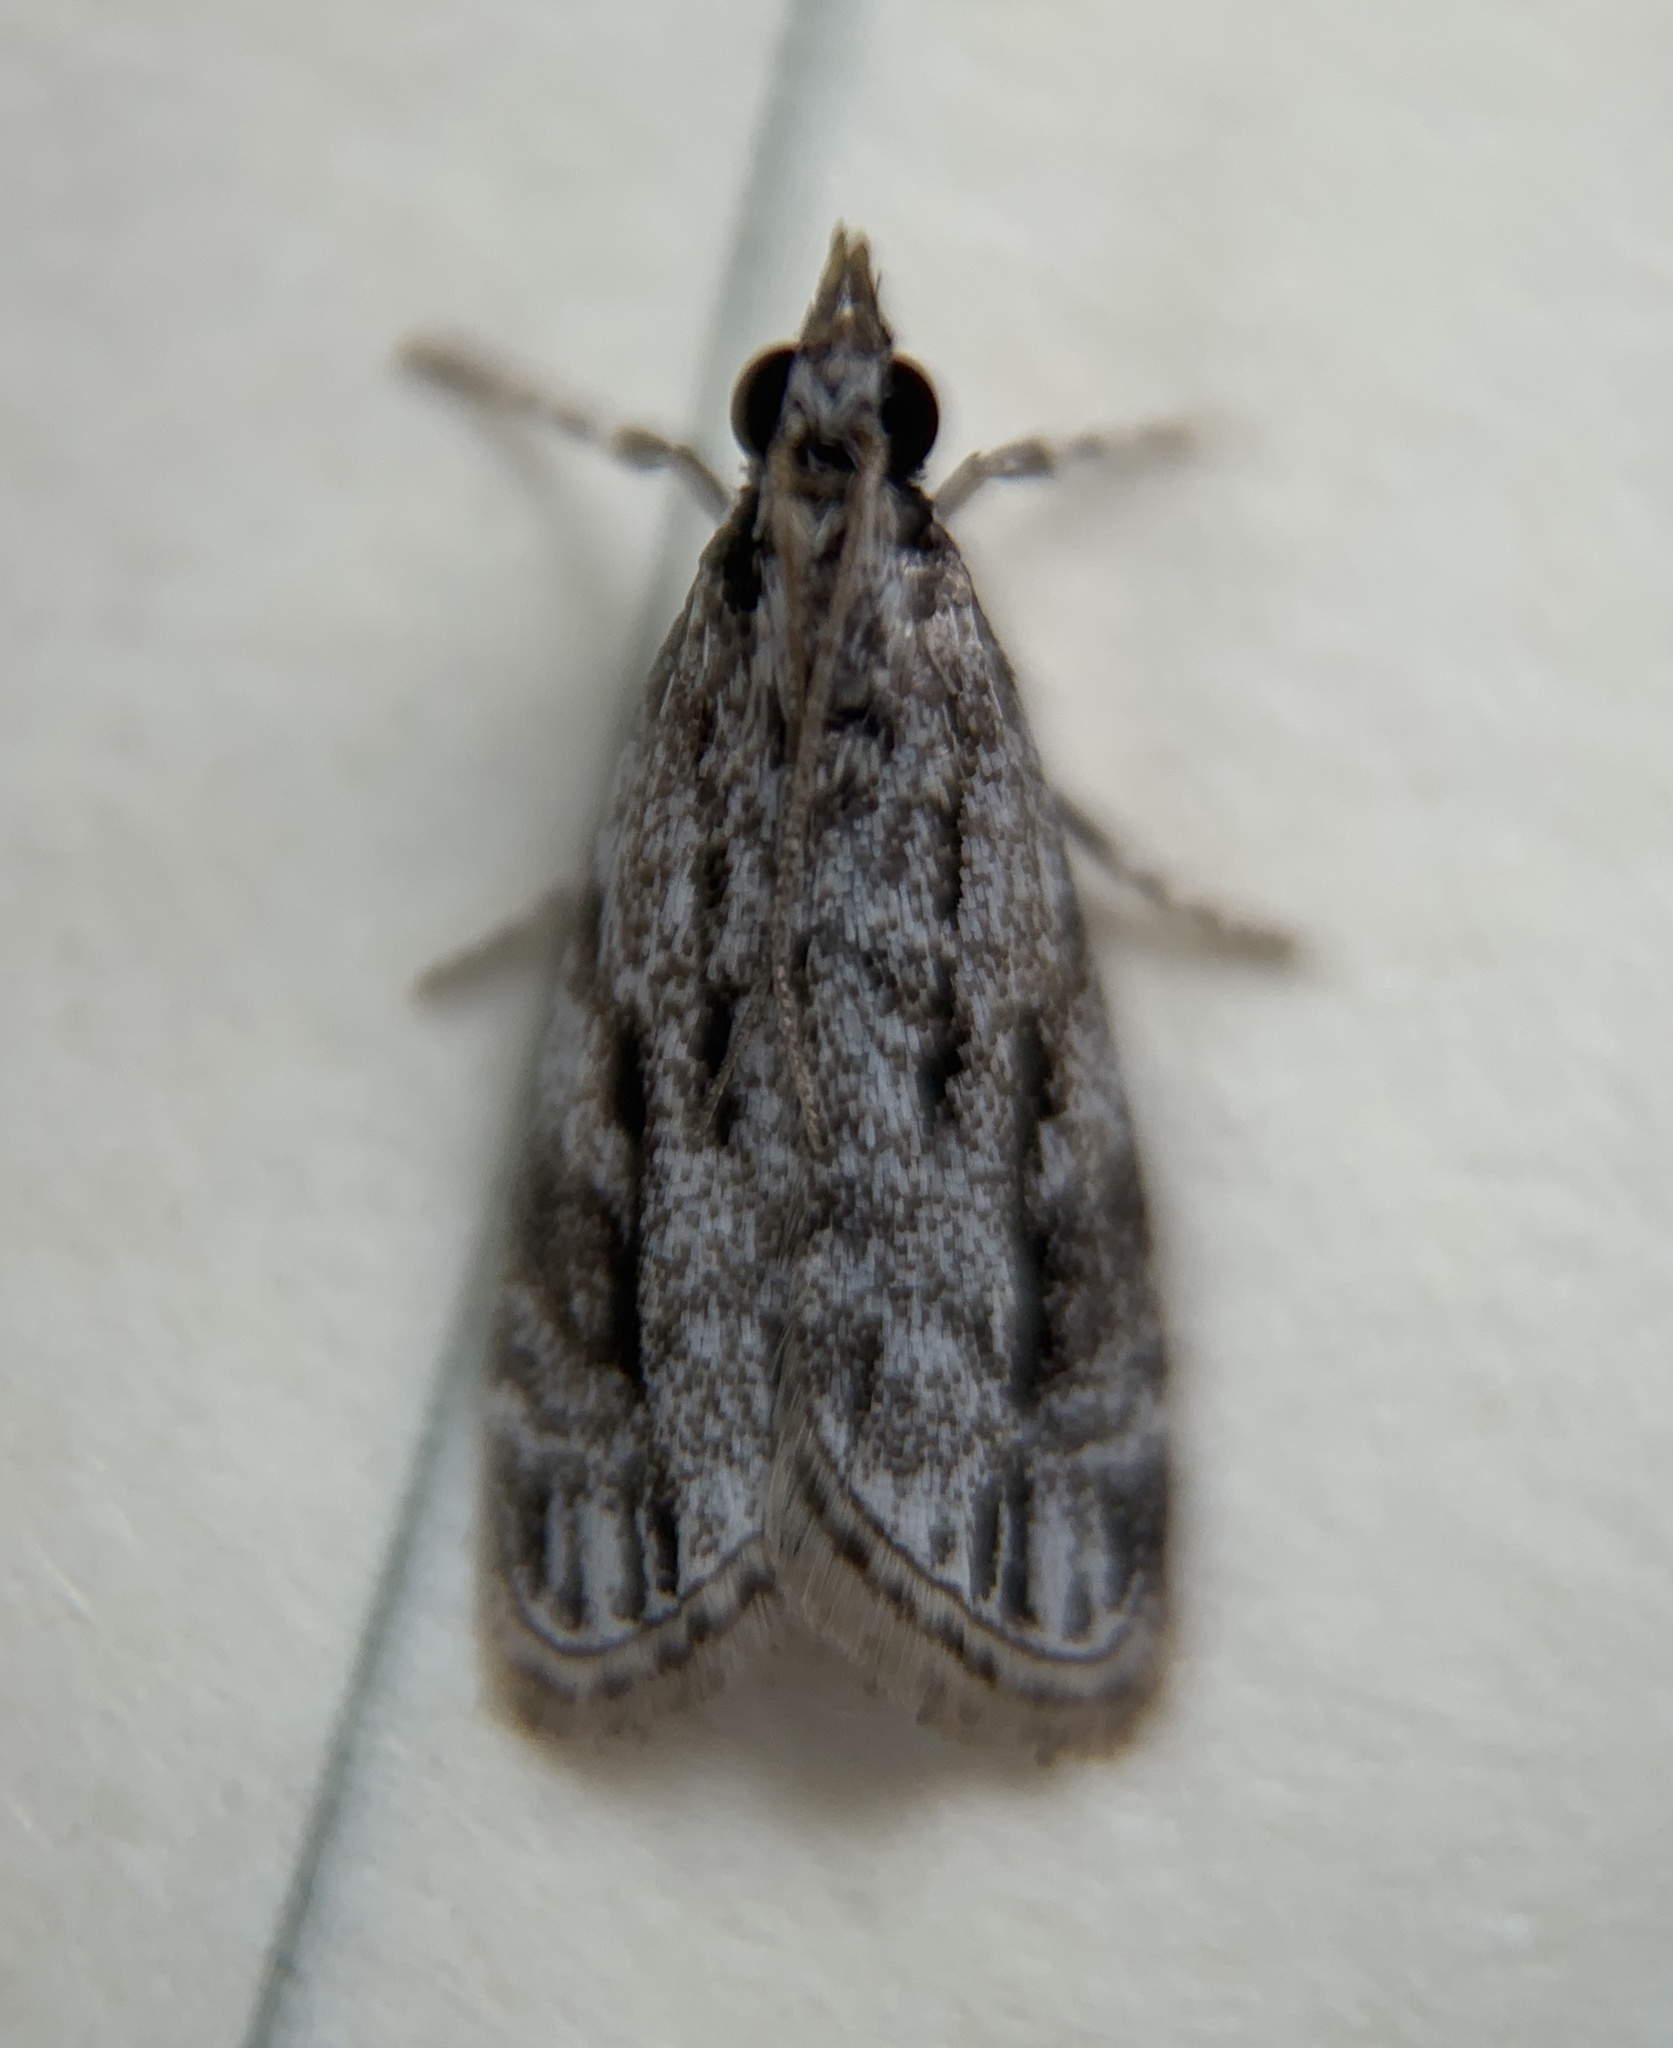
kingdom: Animalia
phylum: Arthropoda
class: Insecta
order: Lepidoptera
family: Crambidae
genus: Eudonia
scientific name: Eudonia strigalis
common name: Striped eudonia moth
